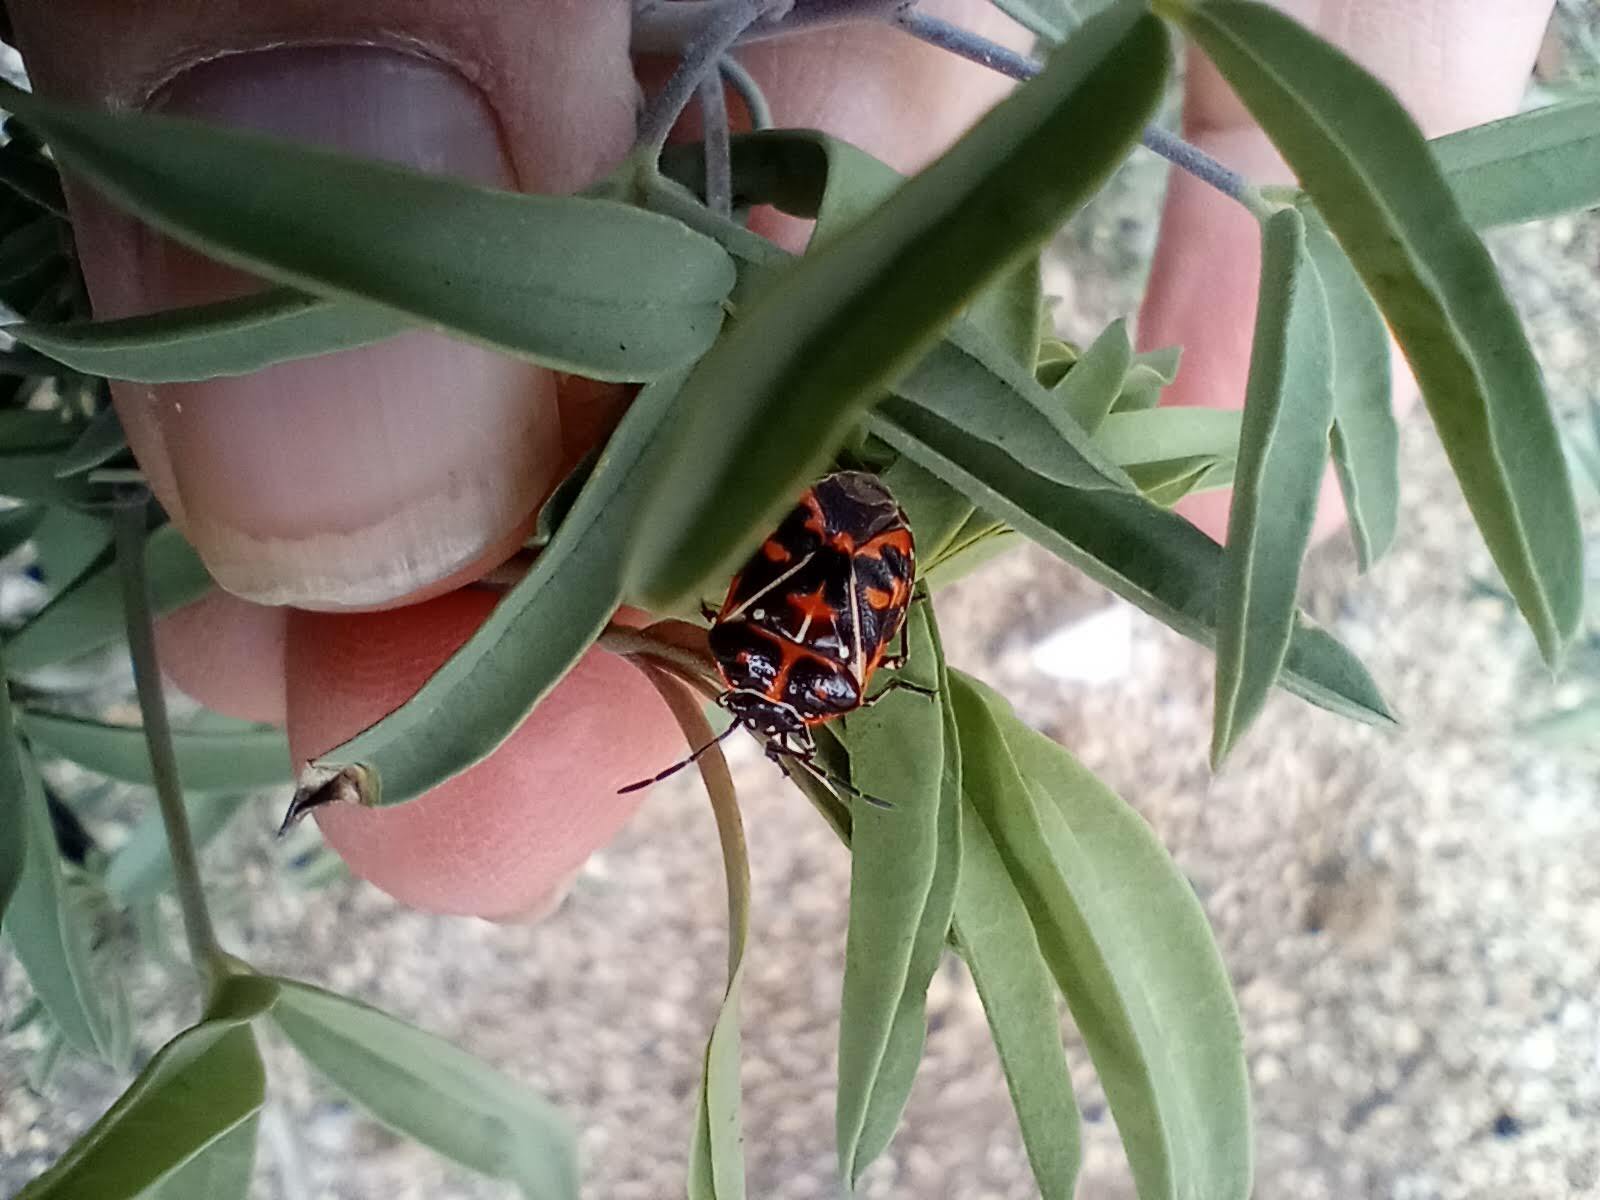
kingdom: Animalia
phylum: Arthropoda
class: Insecta
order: Hemiptera
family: Pentatomidae
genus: Murgantia
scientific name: Murgantia histrionica
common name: Harlequin bug
